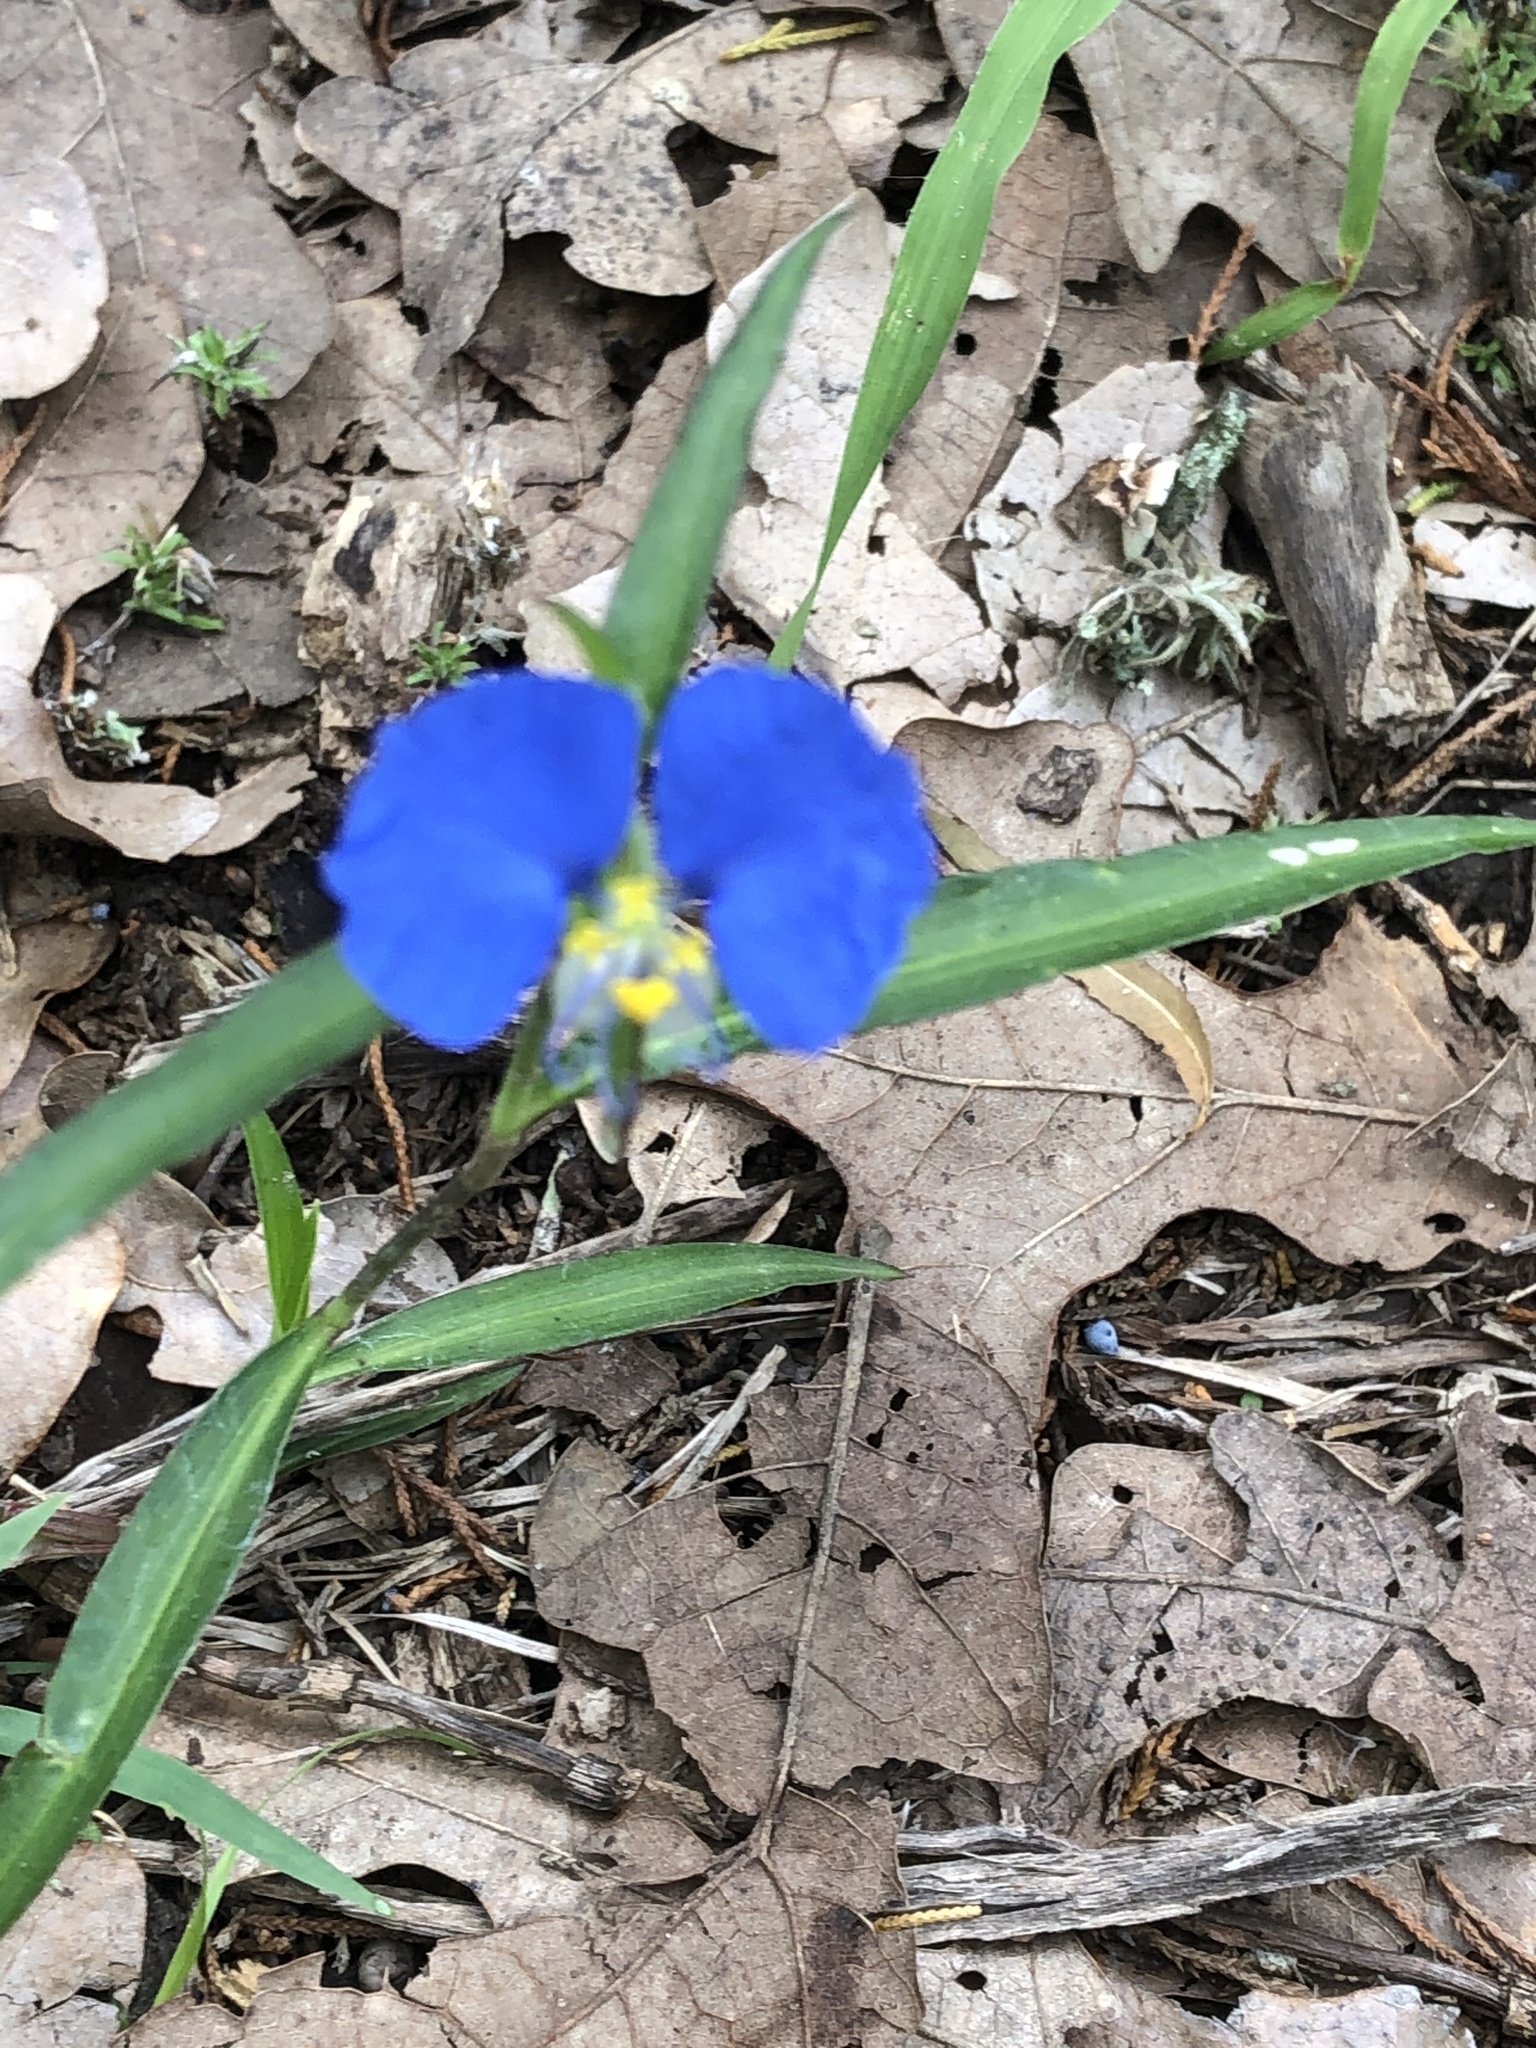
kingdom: Plantae
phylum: Tracheophyta
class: Liliopsida
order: Commelinales
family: Commelinaceae
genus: Commelina
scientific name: Commelina erecta
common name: Blousel blommetjie
